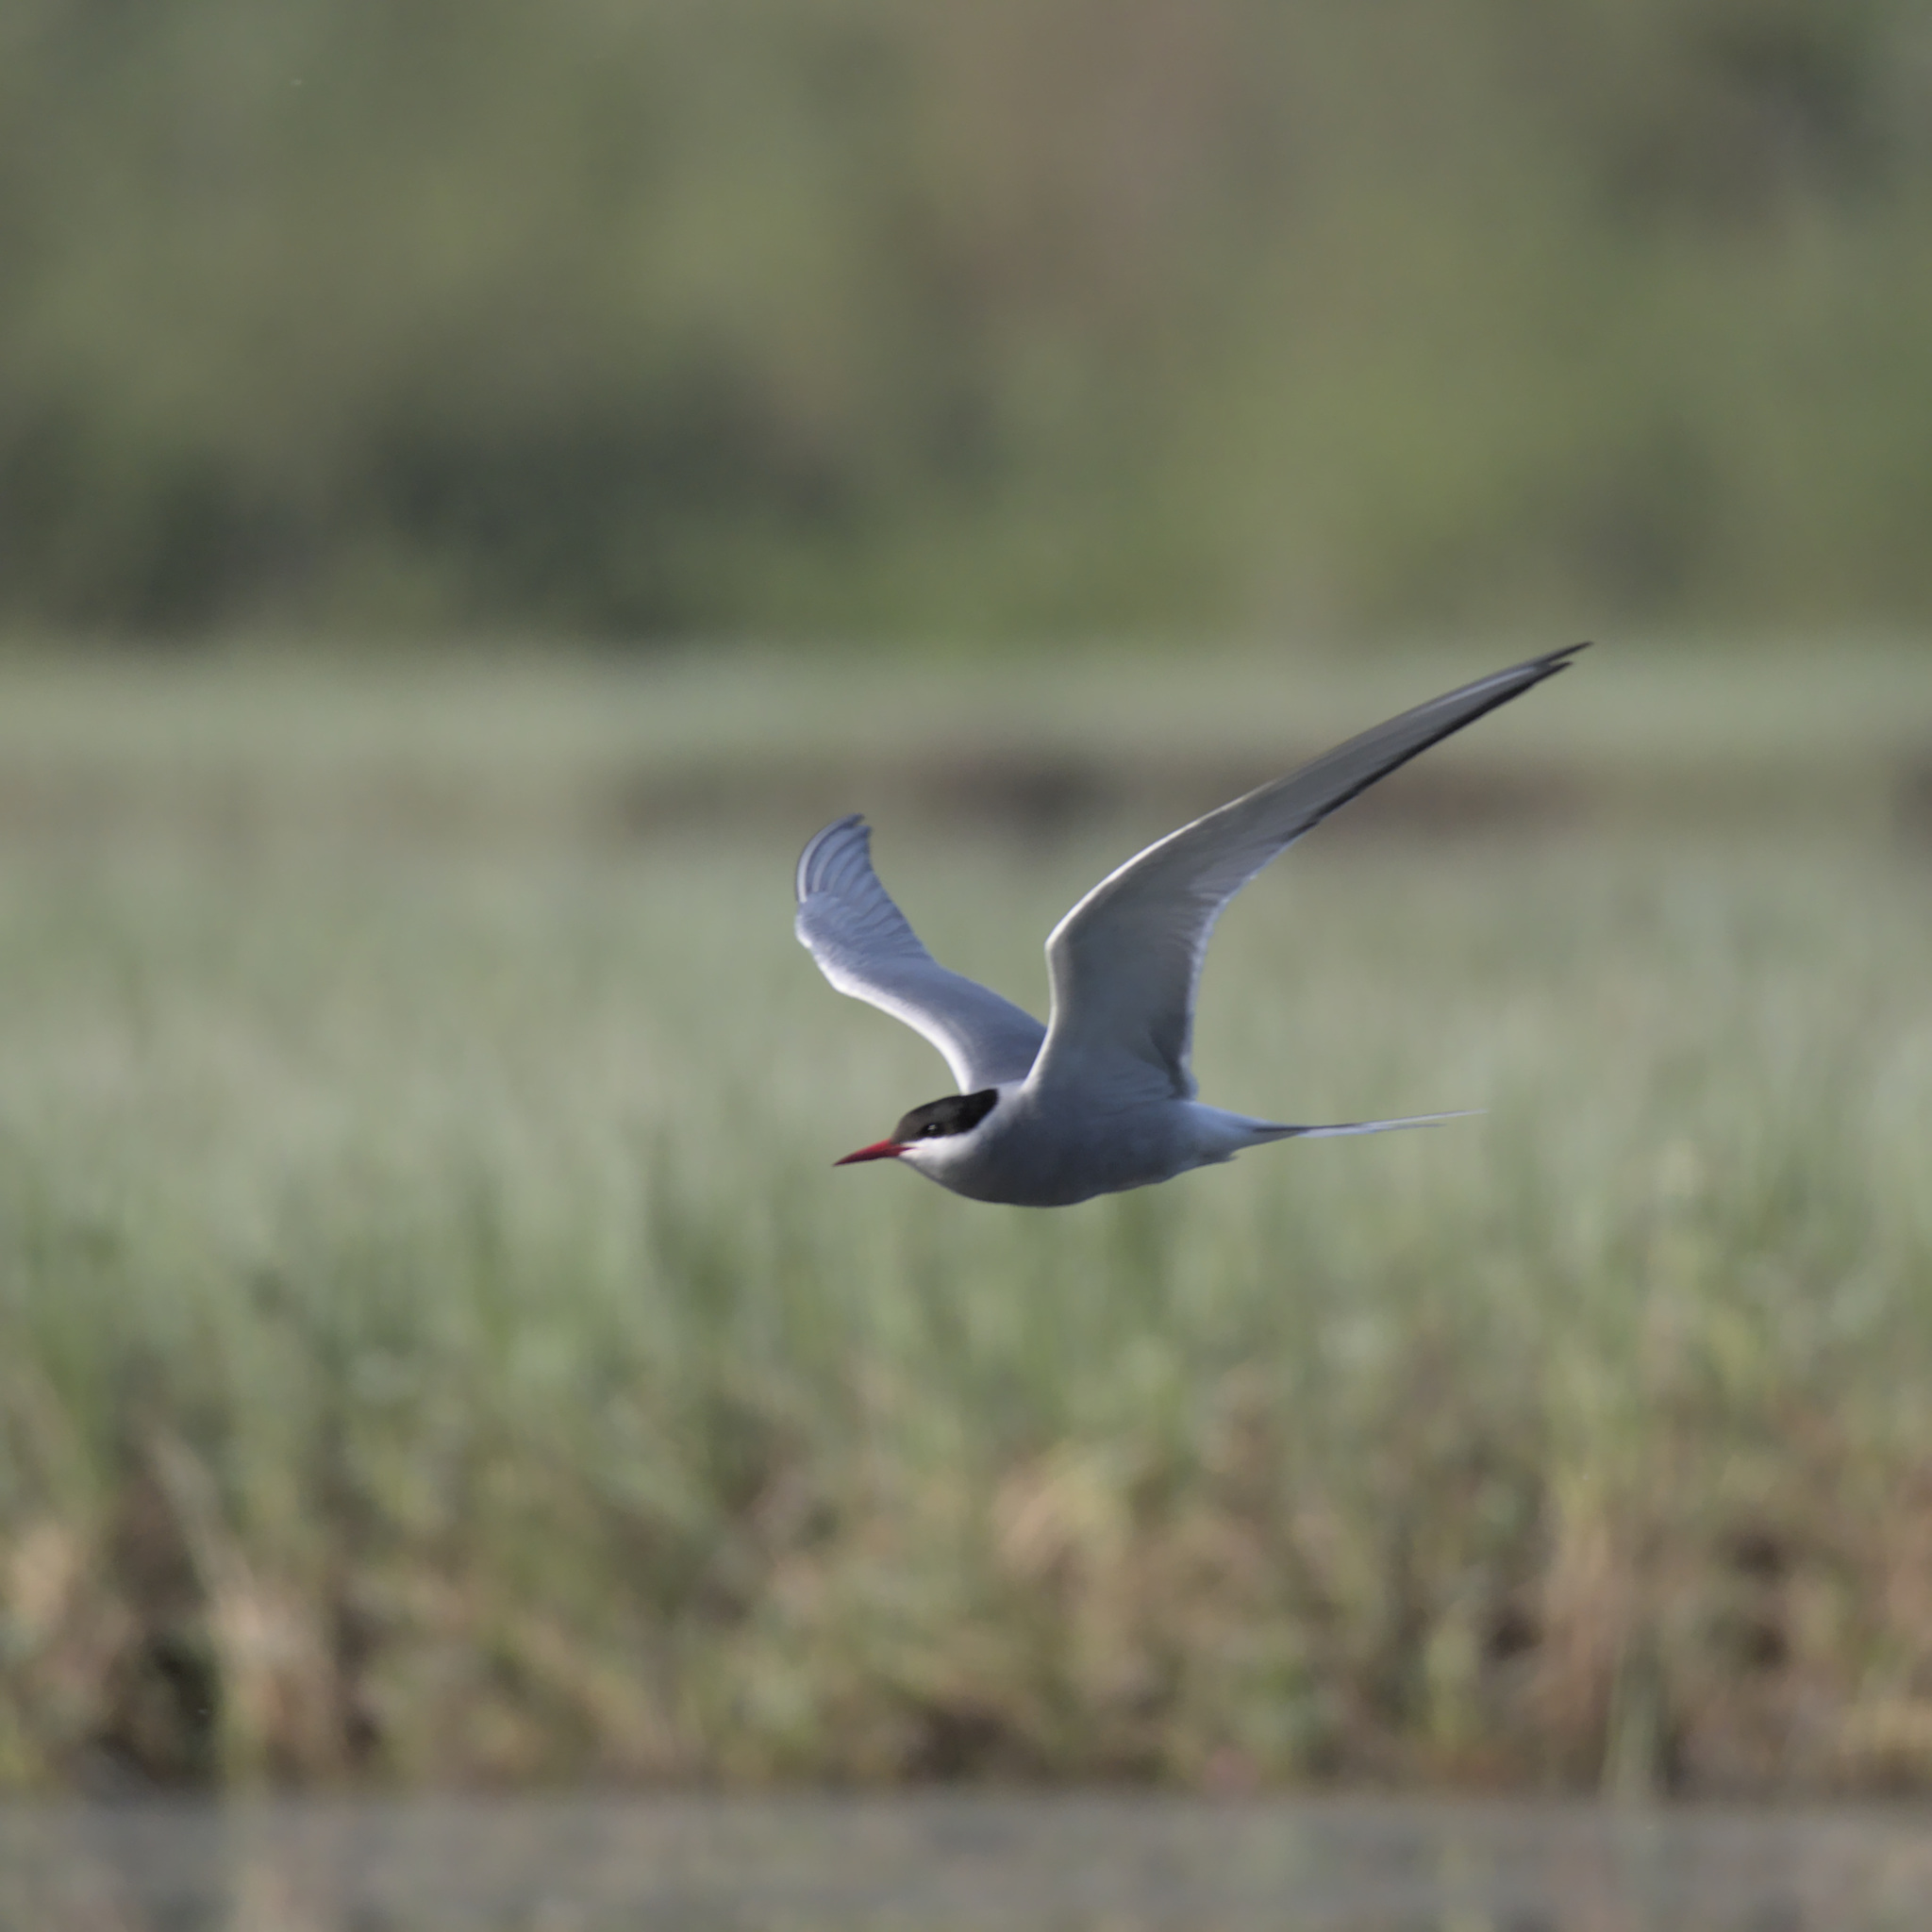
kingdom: Animalia
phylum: Chordata
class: Aves
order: Charadriiformes
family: Laridae
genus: Sterna
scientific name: Sterna paradisaea
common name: Arctic tern
